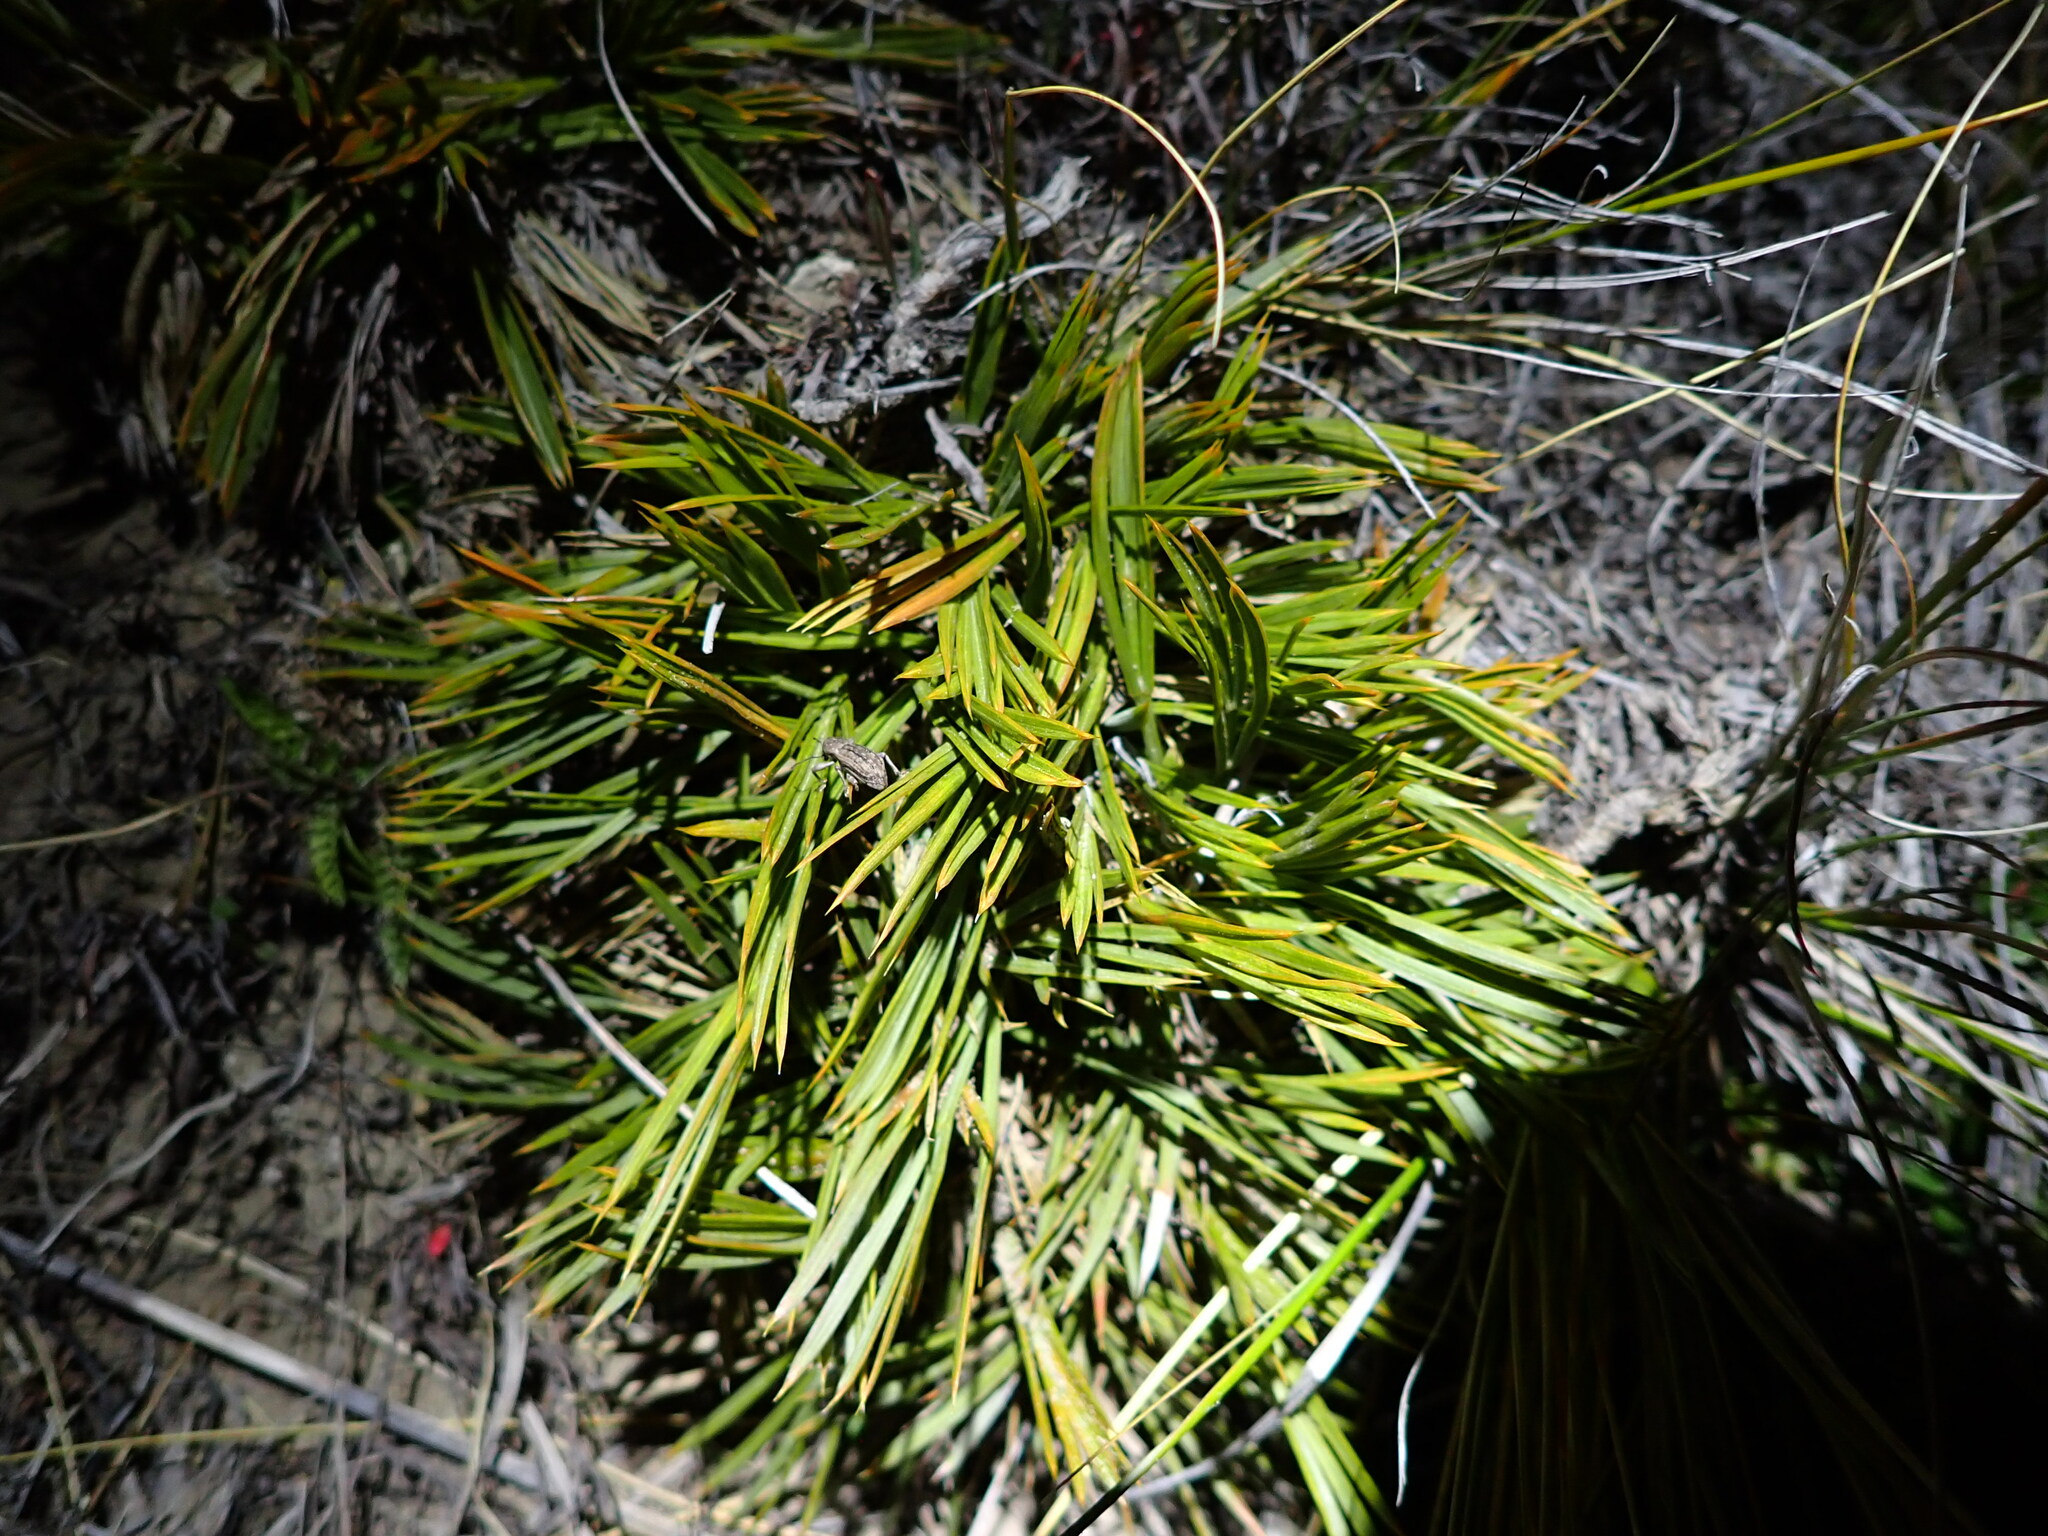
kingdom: Plantae
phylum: Tracheophyta
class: Magnoliopsida
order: Apiales
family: Apiaceae
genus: Aciphylla
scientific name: Aciphylla montana
